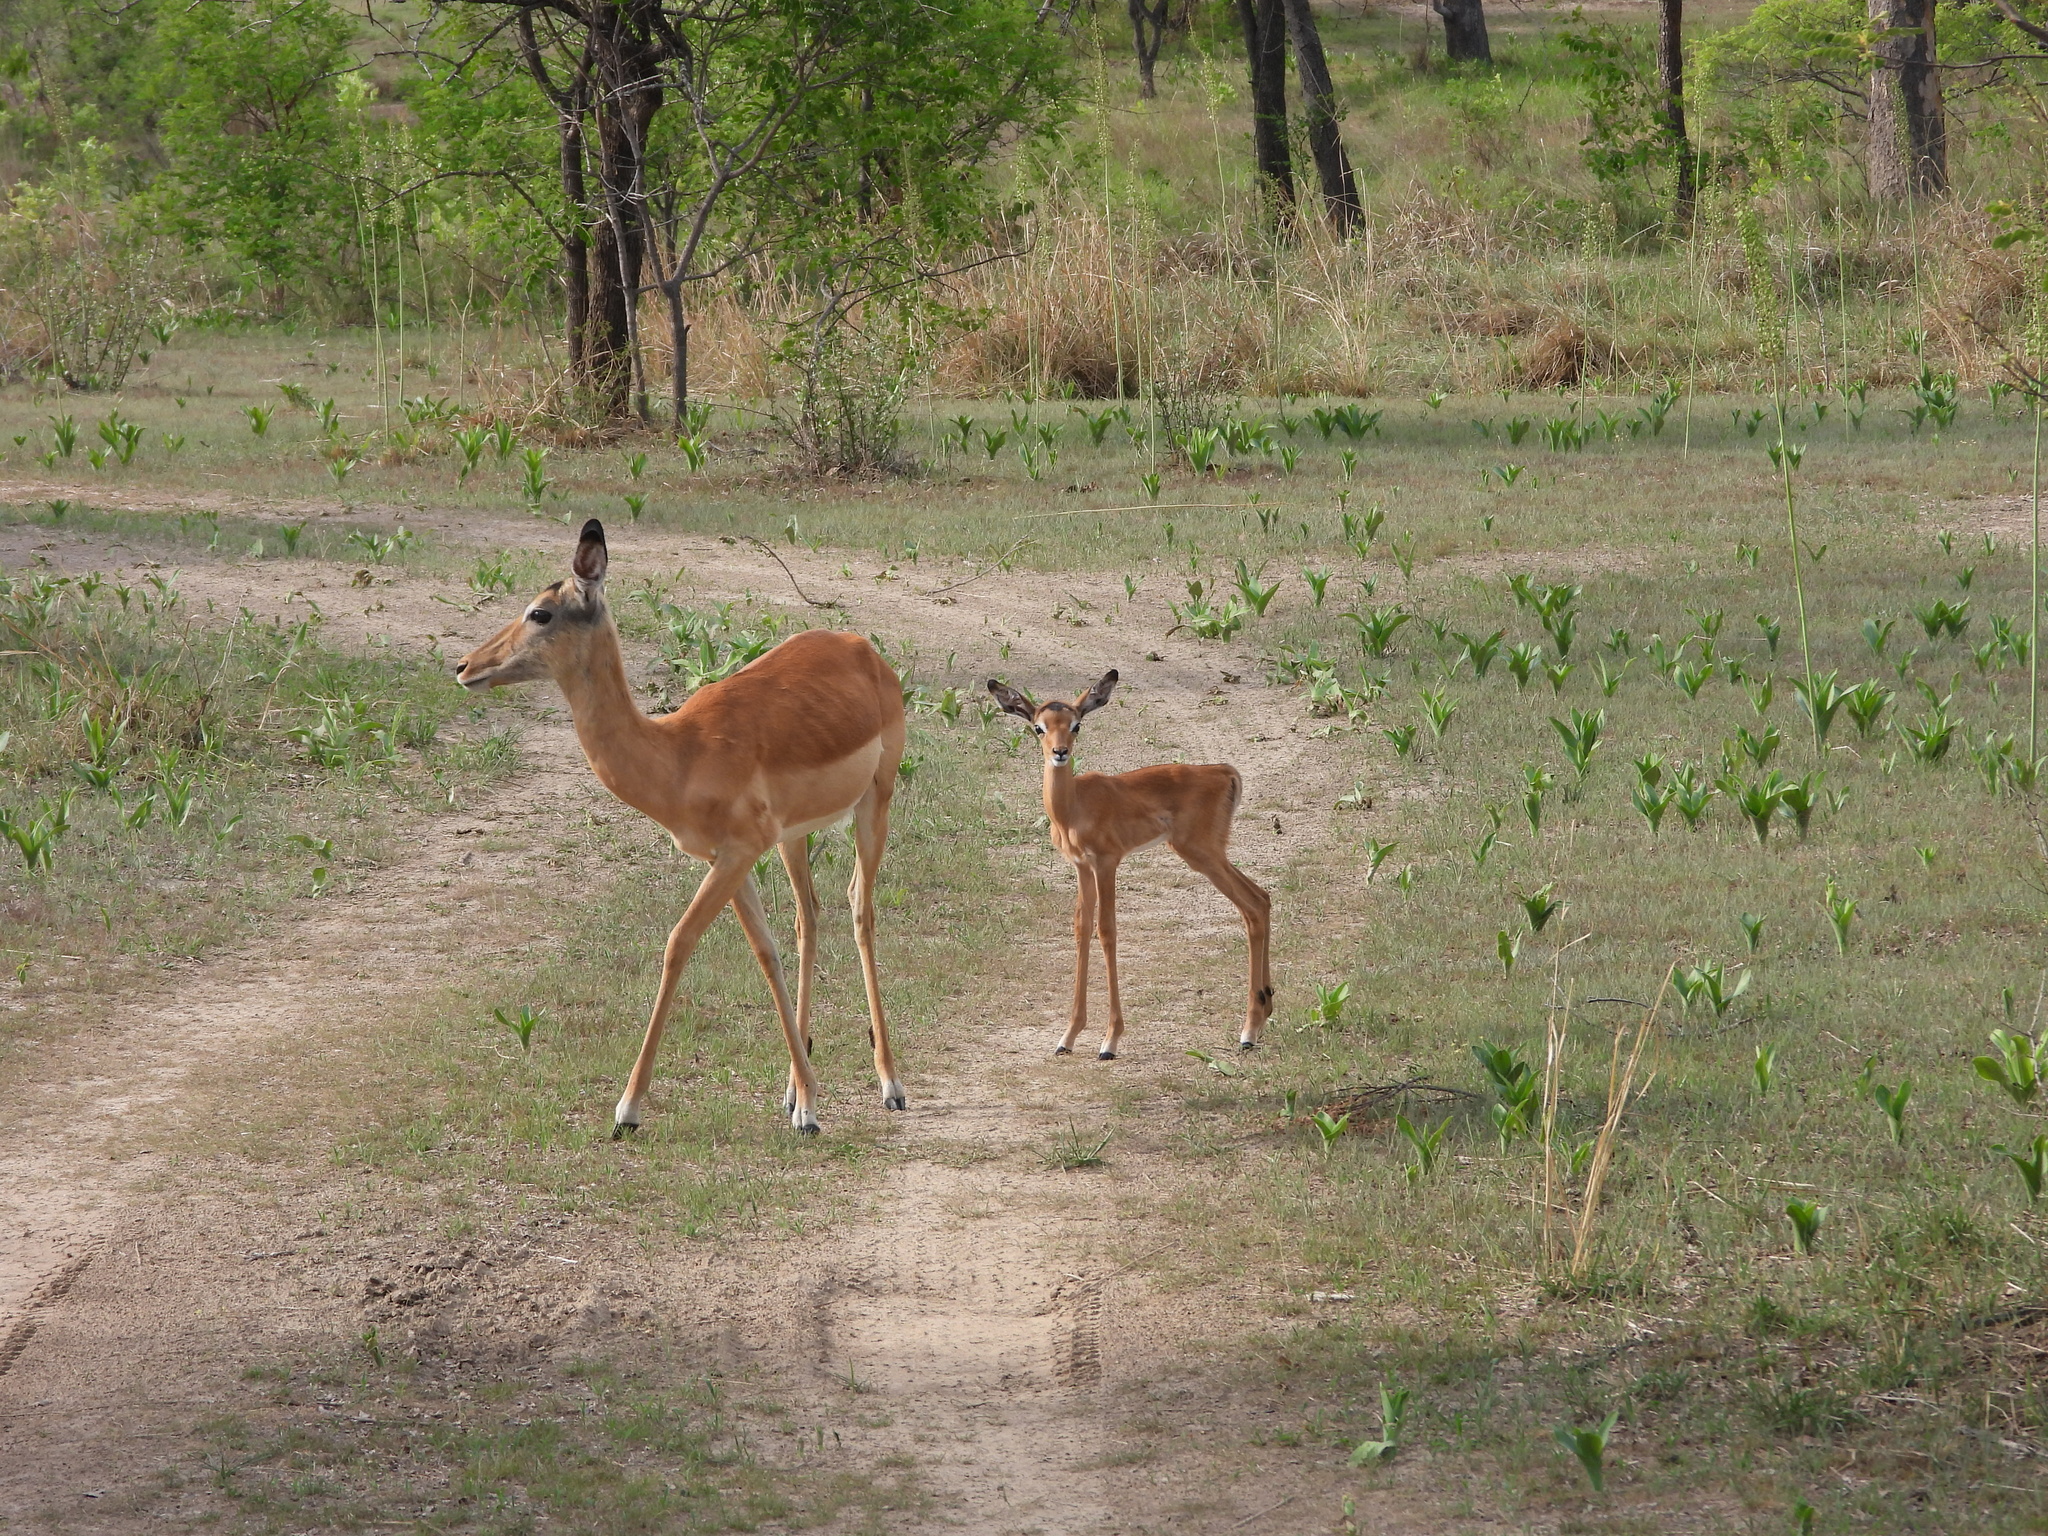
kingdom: Animalia
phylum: Chordata
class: Mammalia
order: Artiodactyla
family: Bovidae
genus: Aepyceros
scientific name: Aepyceros melampus
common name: Impala
